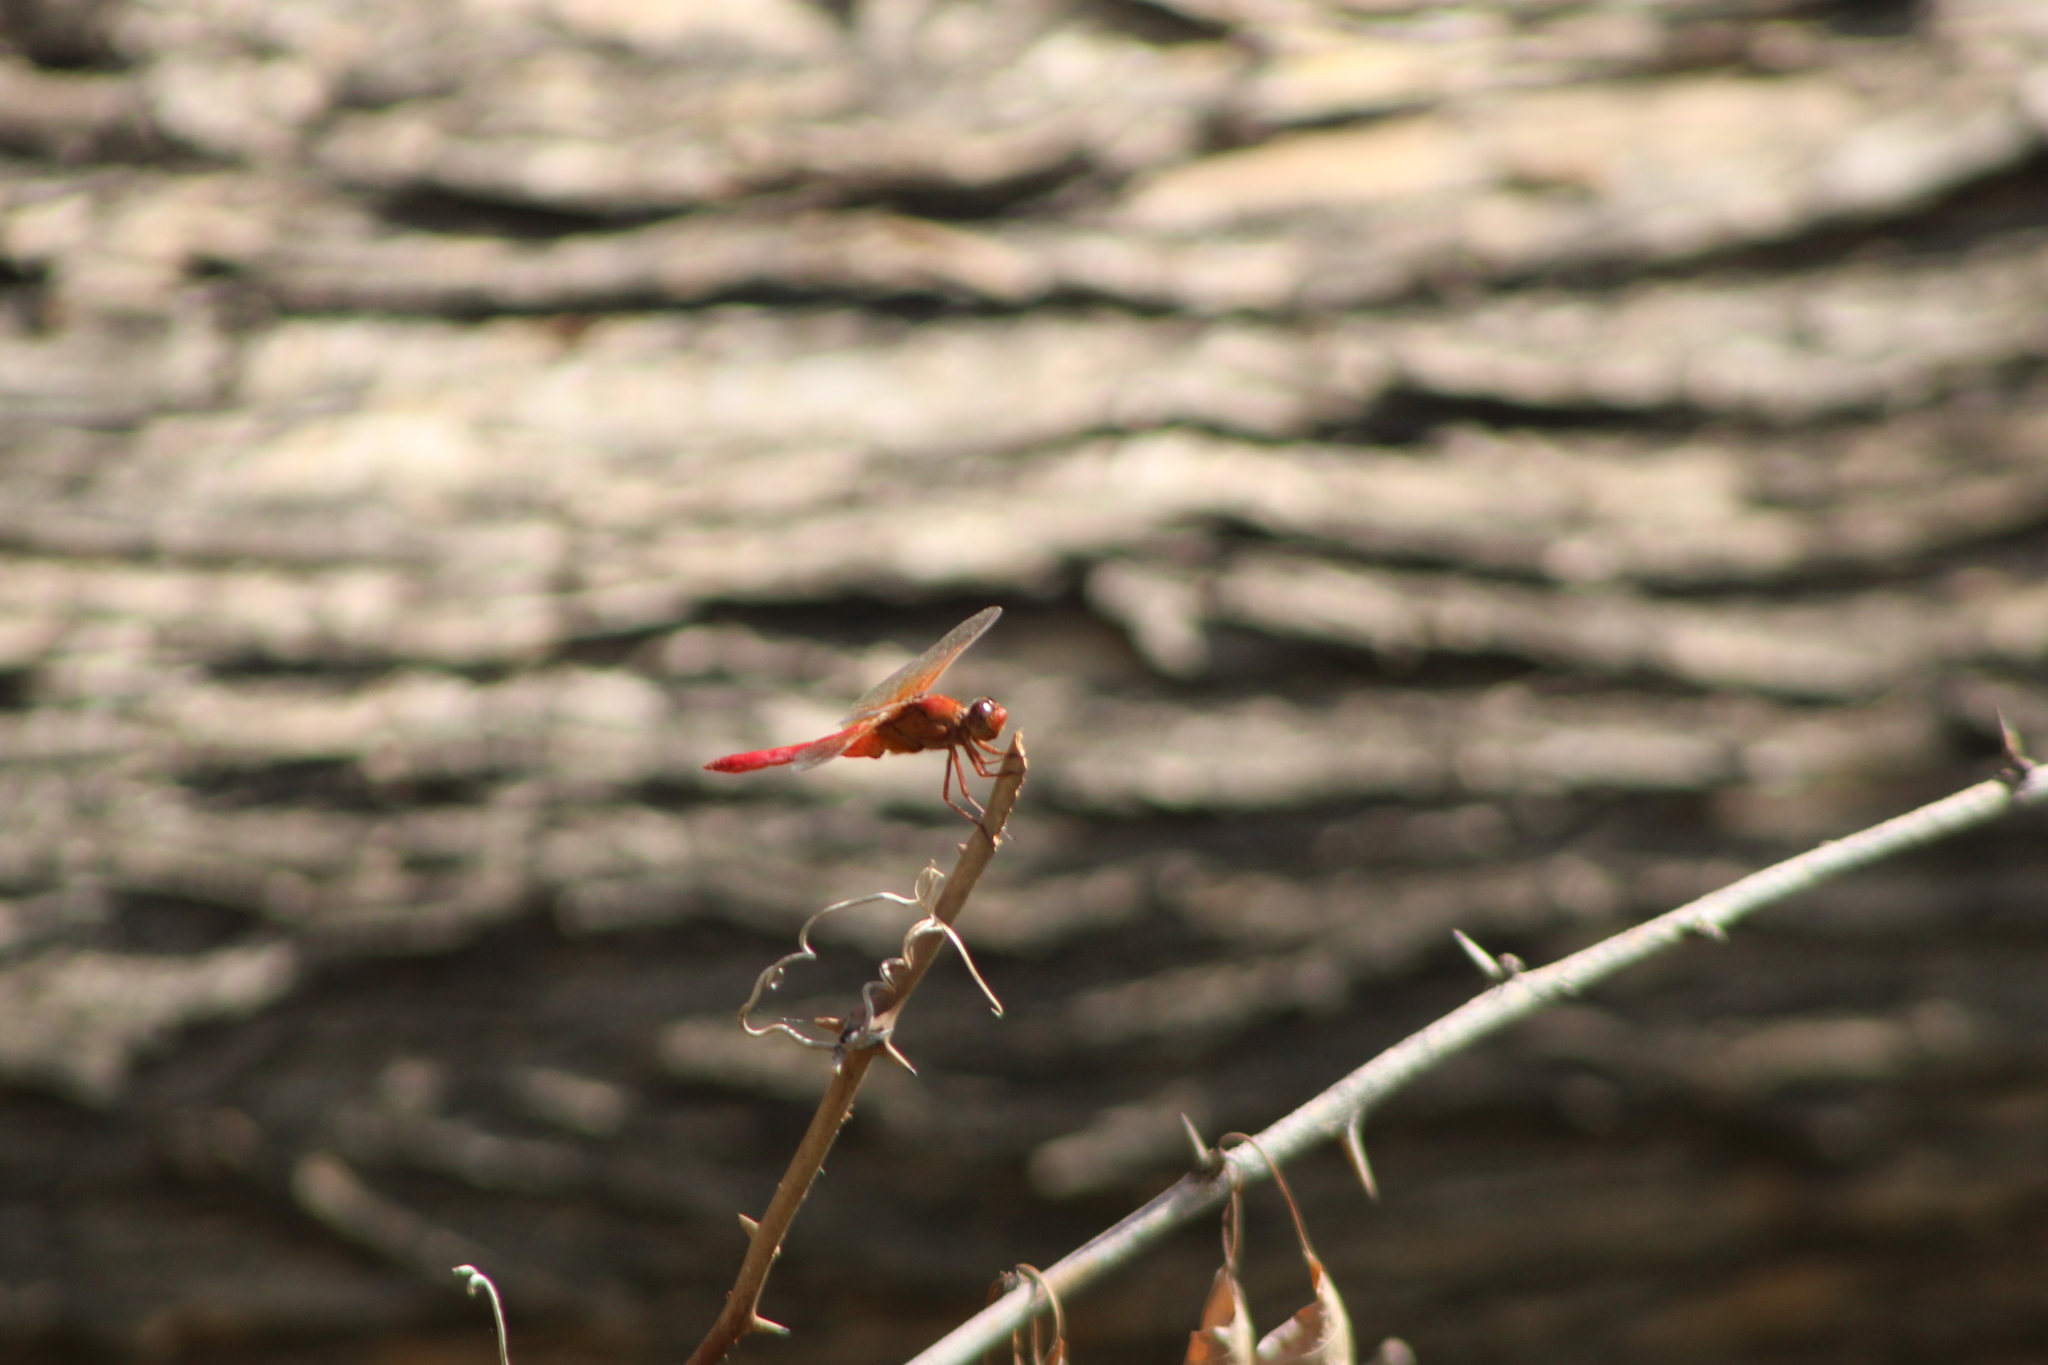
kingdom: Animalia
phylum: Arthropoda
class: Insecta
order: Odonata
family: Libellulidae
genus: Libellula
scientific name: Libellula croceipennis
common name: Neon skimmer
